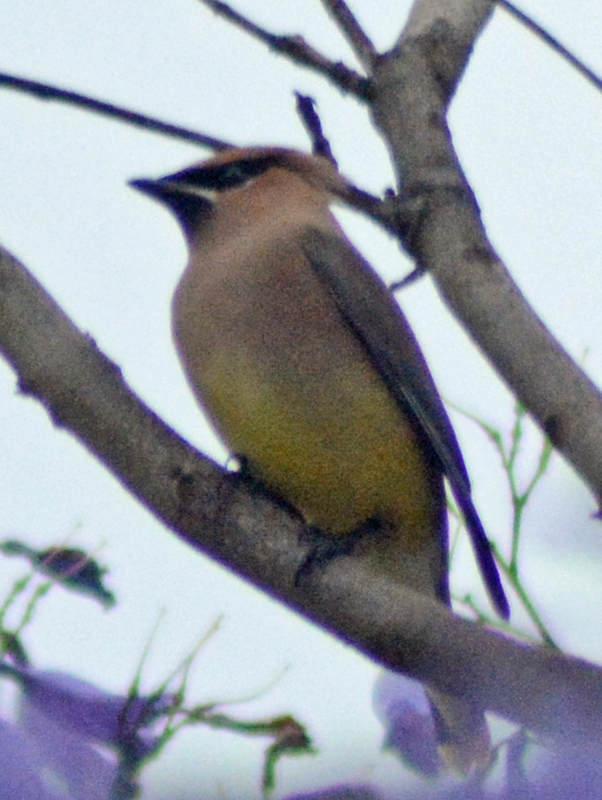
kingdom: Animalia
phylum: Chordata
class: Aves
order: Passeriformes
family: Bombycillidae
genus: Bombycilla
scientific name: Bombycilla cedrorum
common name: Cedar waxwing
